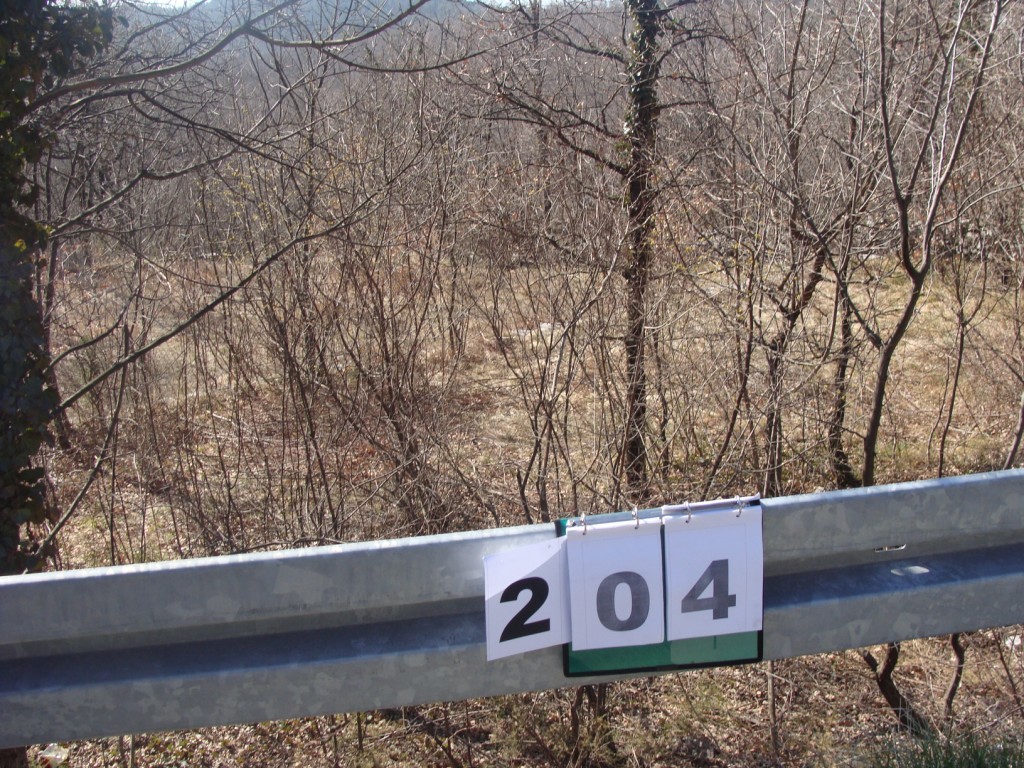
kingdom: Plantae
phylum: Tracheophyta
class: Magnoliopsida
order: Cornales
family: Cornaceae
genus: Cornus
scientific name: Cornus mas
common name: Cornelian-cherry
